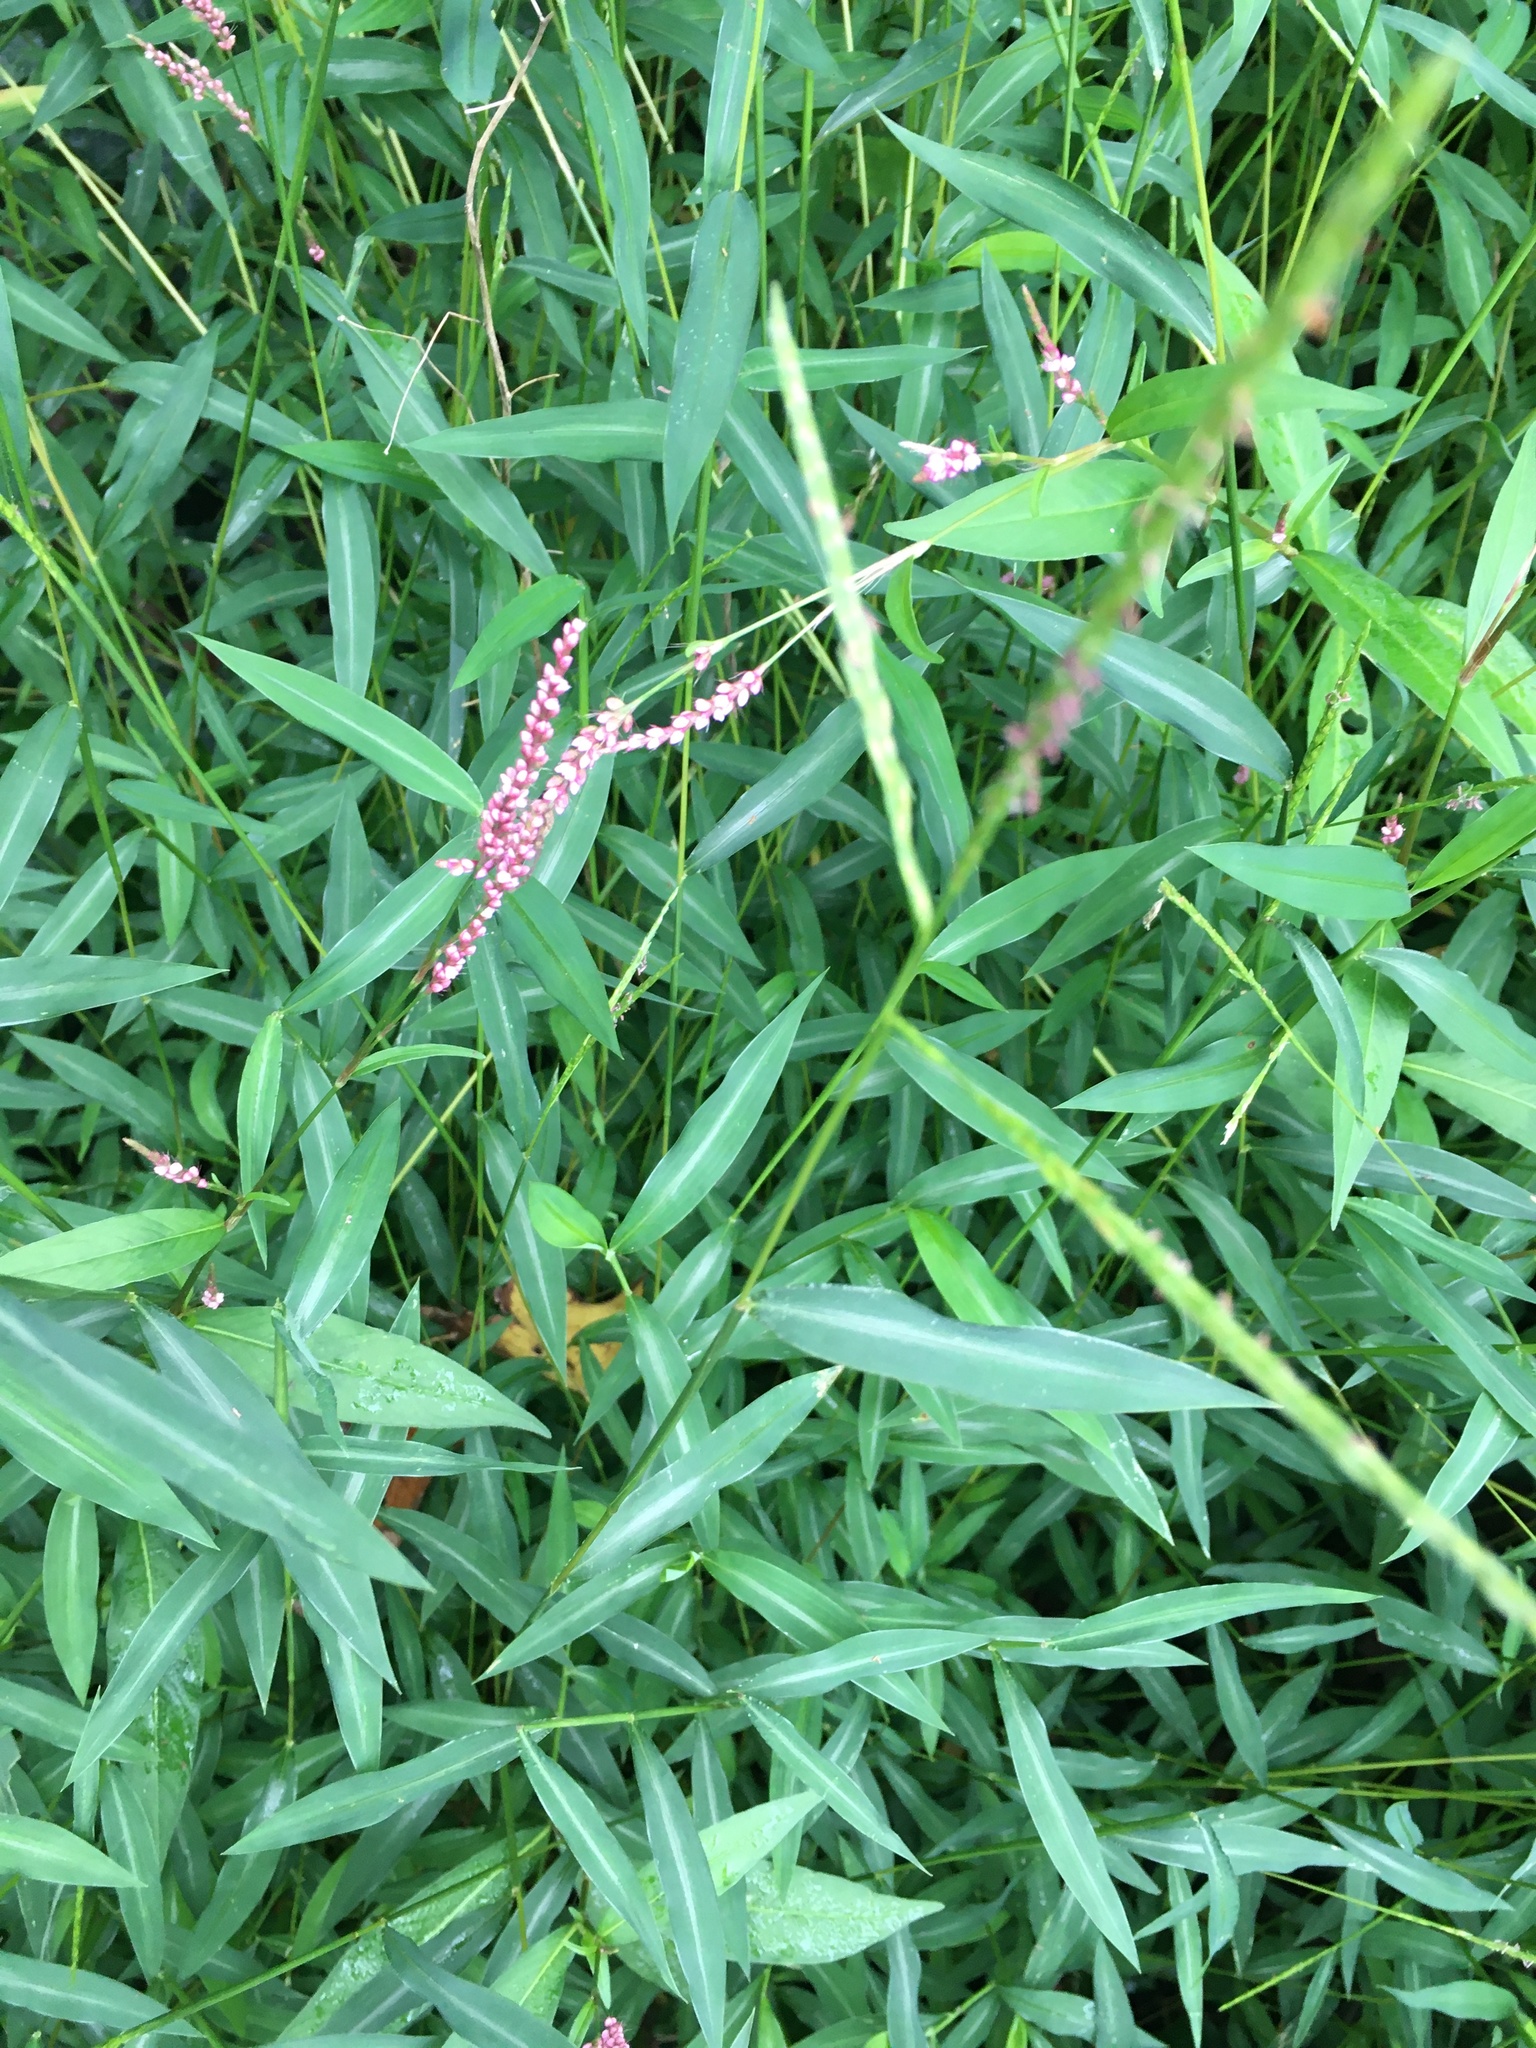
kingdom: Plantae
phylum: Tracheophyta
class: Magnoliopsida
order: Caryophyllales
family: Polygonaceae
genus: Persicaria
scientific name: Persicaria longiseta
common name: Bristly lady's-thumb
